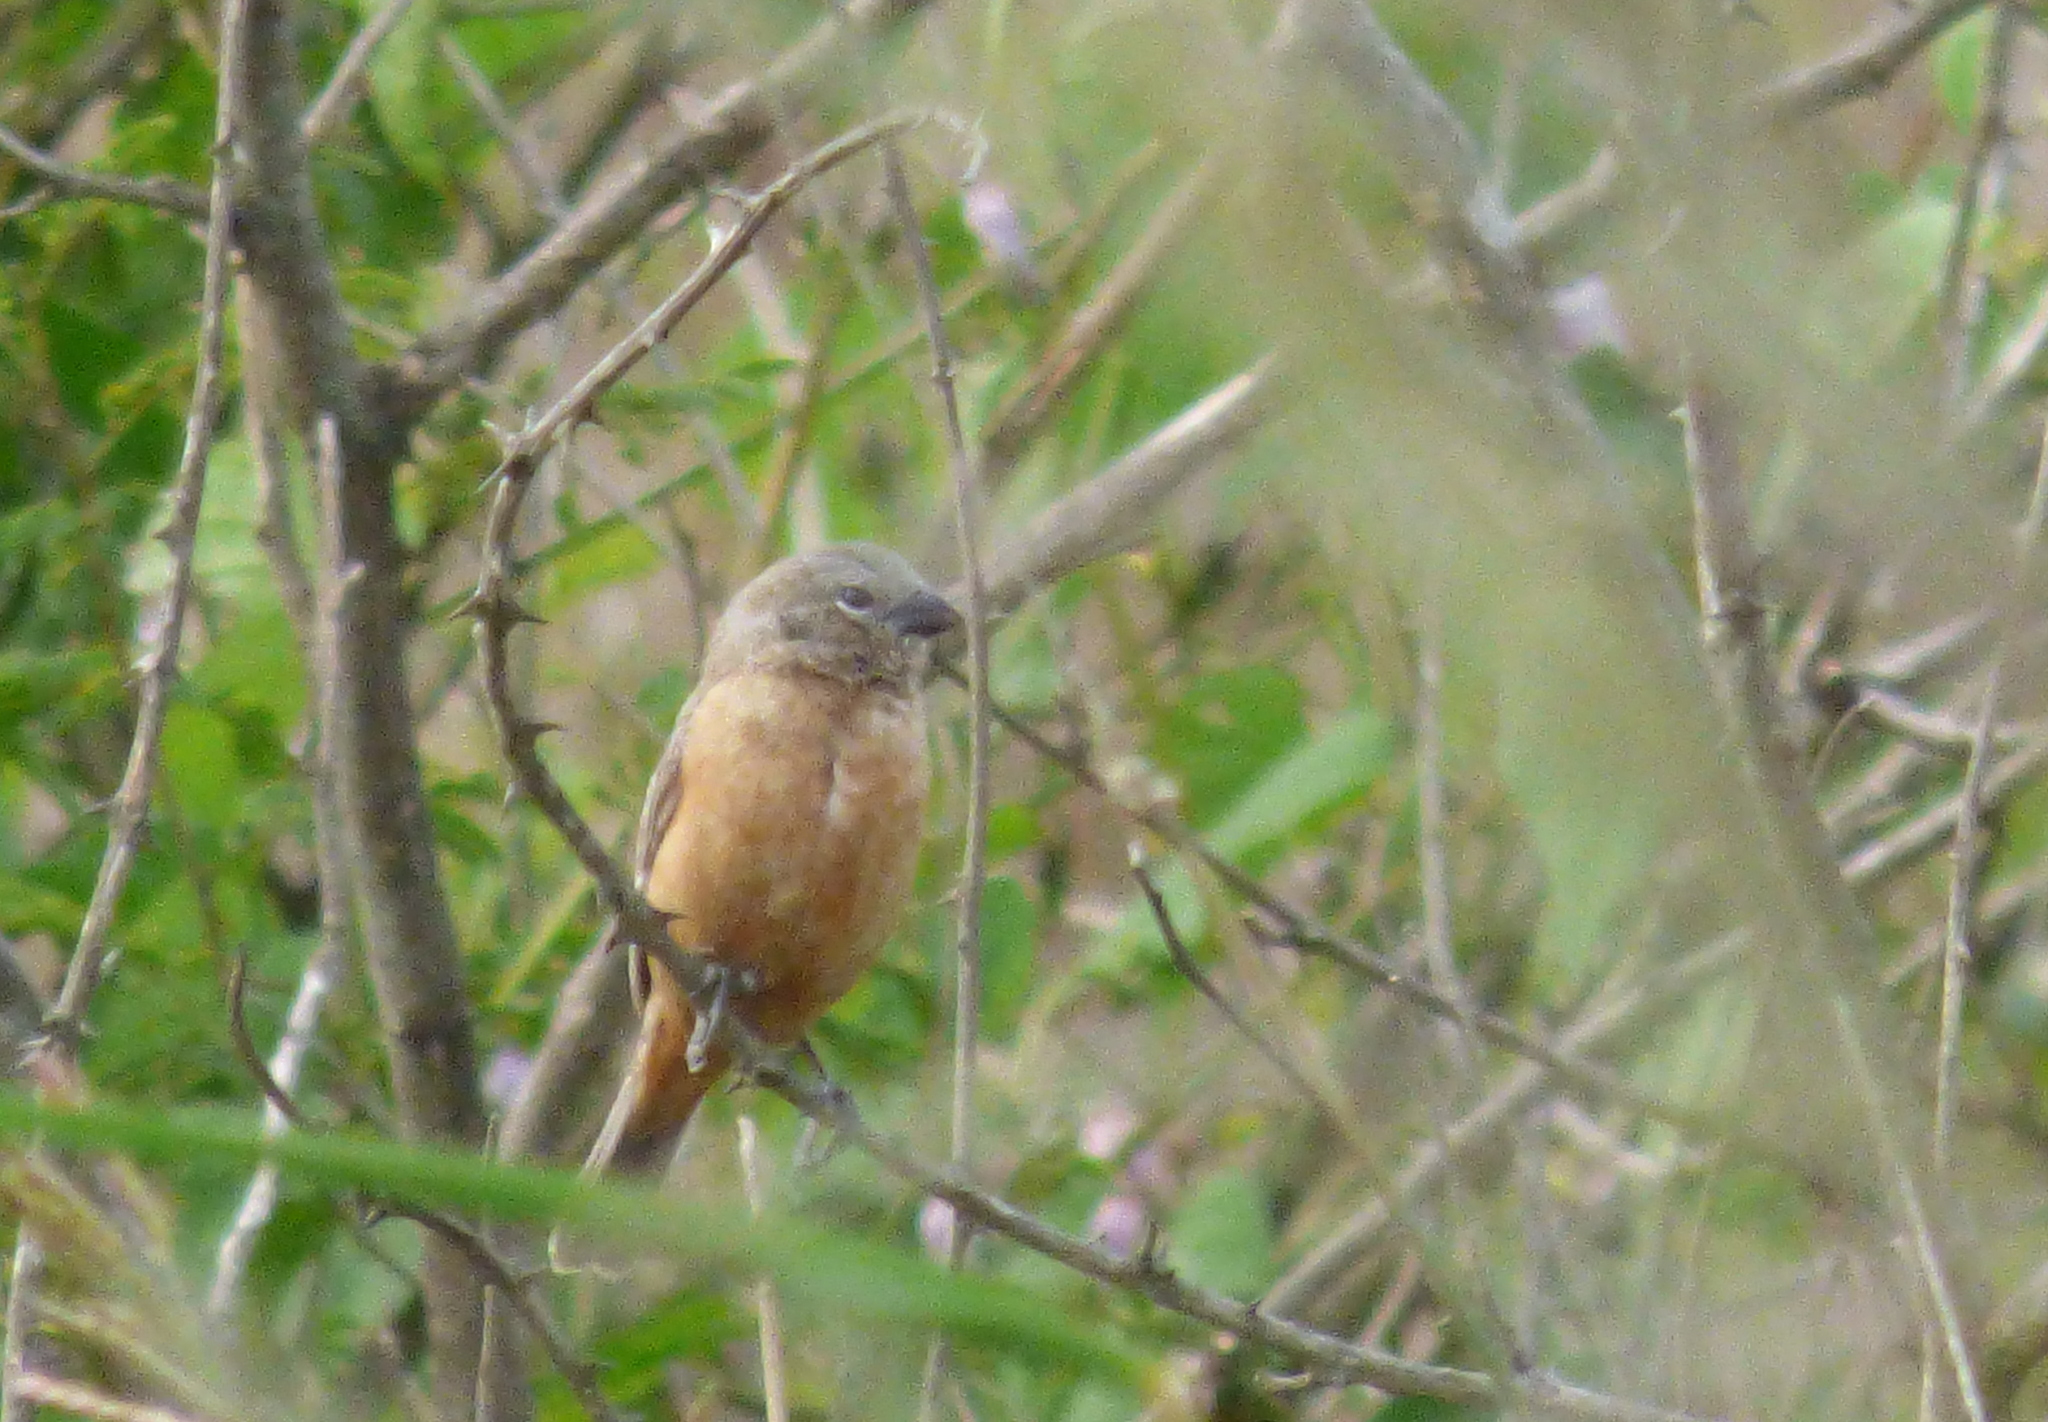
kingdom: Animalia
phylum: Chordata
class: Aves
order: Passeriformes
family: Thraupidae
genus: Sporophila
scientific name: Sporophila ruficollis
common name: Dark-throated seedeater
